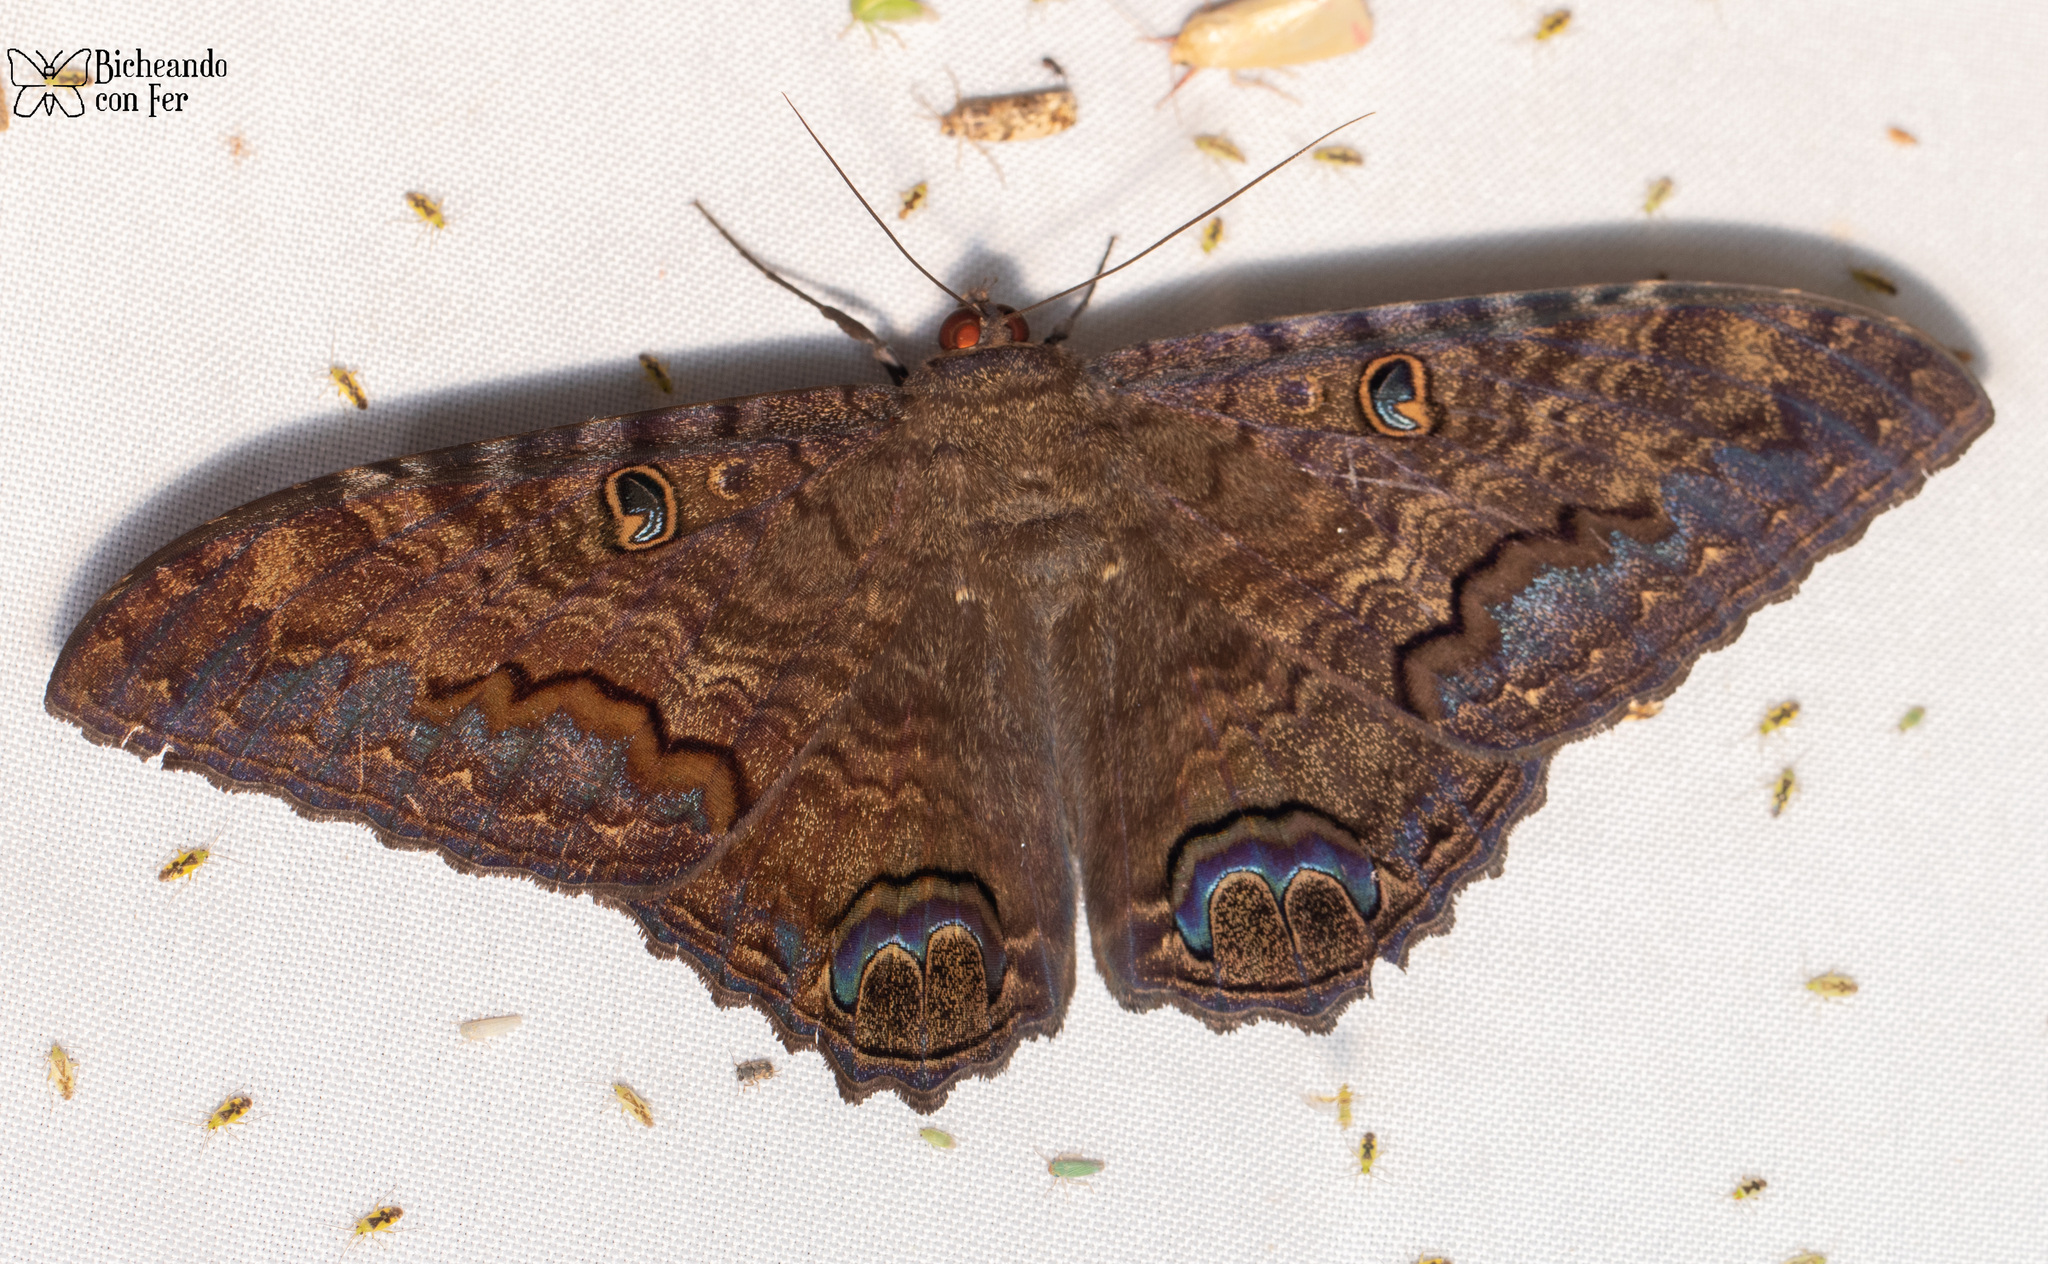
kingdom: Animalia
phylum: Arthropoda
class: Insecta
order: Lepidoptera
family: Erebidae
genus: Ascalapha
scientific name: Ascalapha odorata
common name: Black witch
